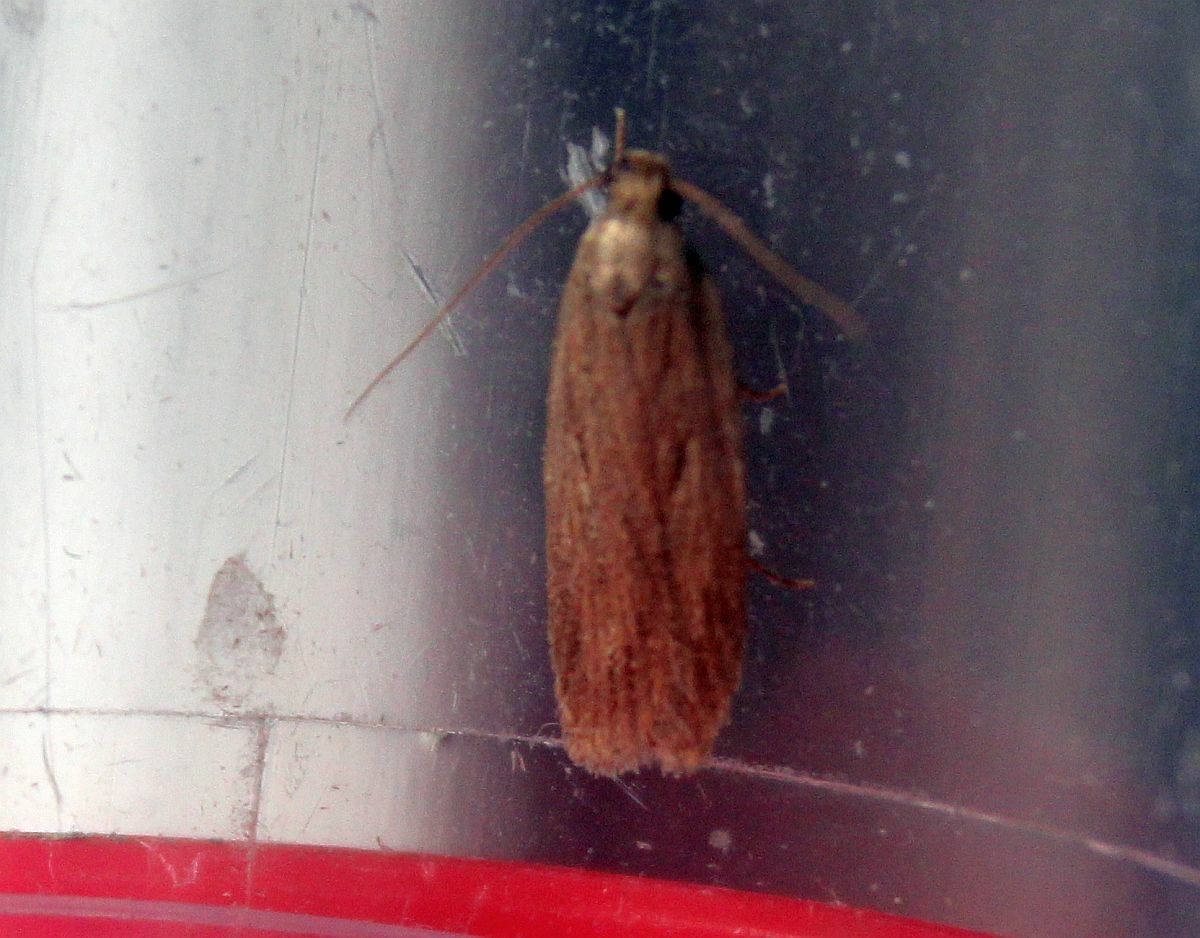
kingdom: Animalia
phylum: Arthropoda
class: Insecta
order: Lepidoptera
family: Depressariidae
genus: Depressaria
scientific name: Depressaria apiella
